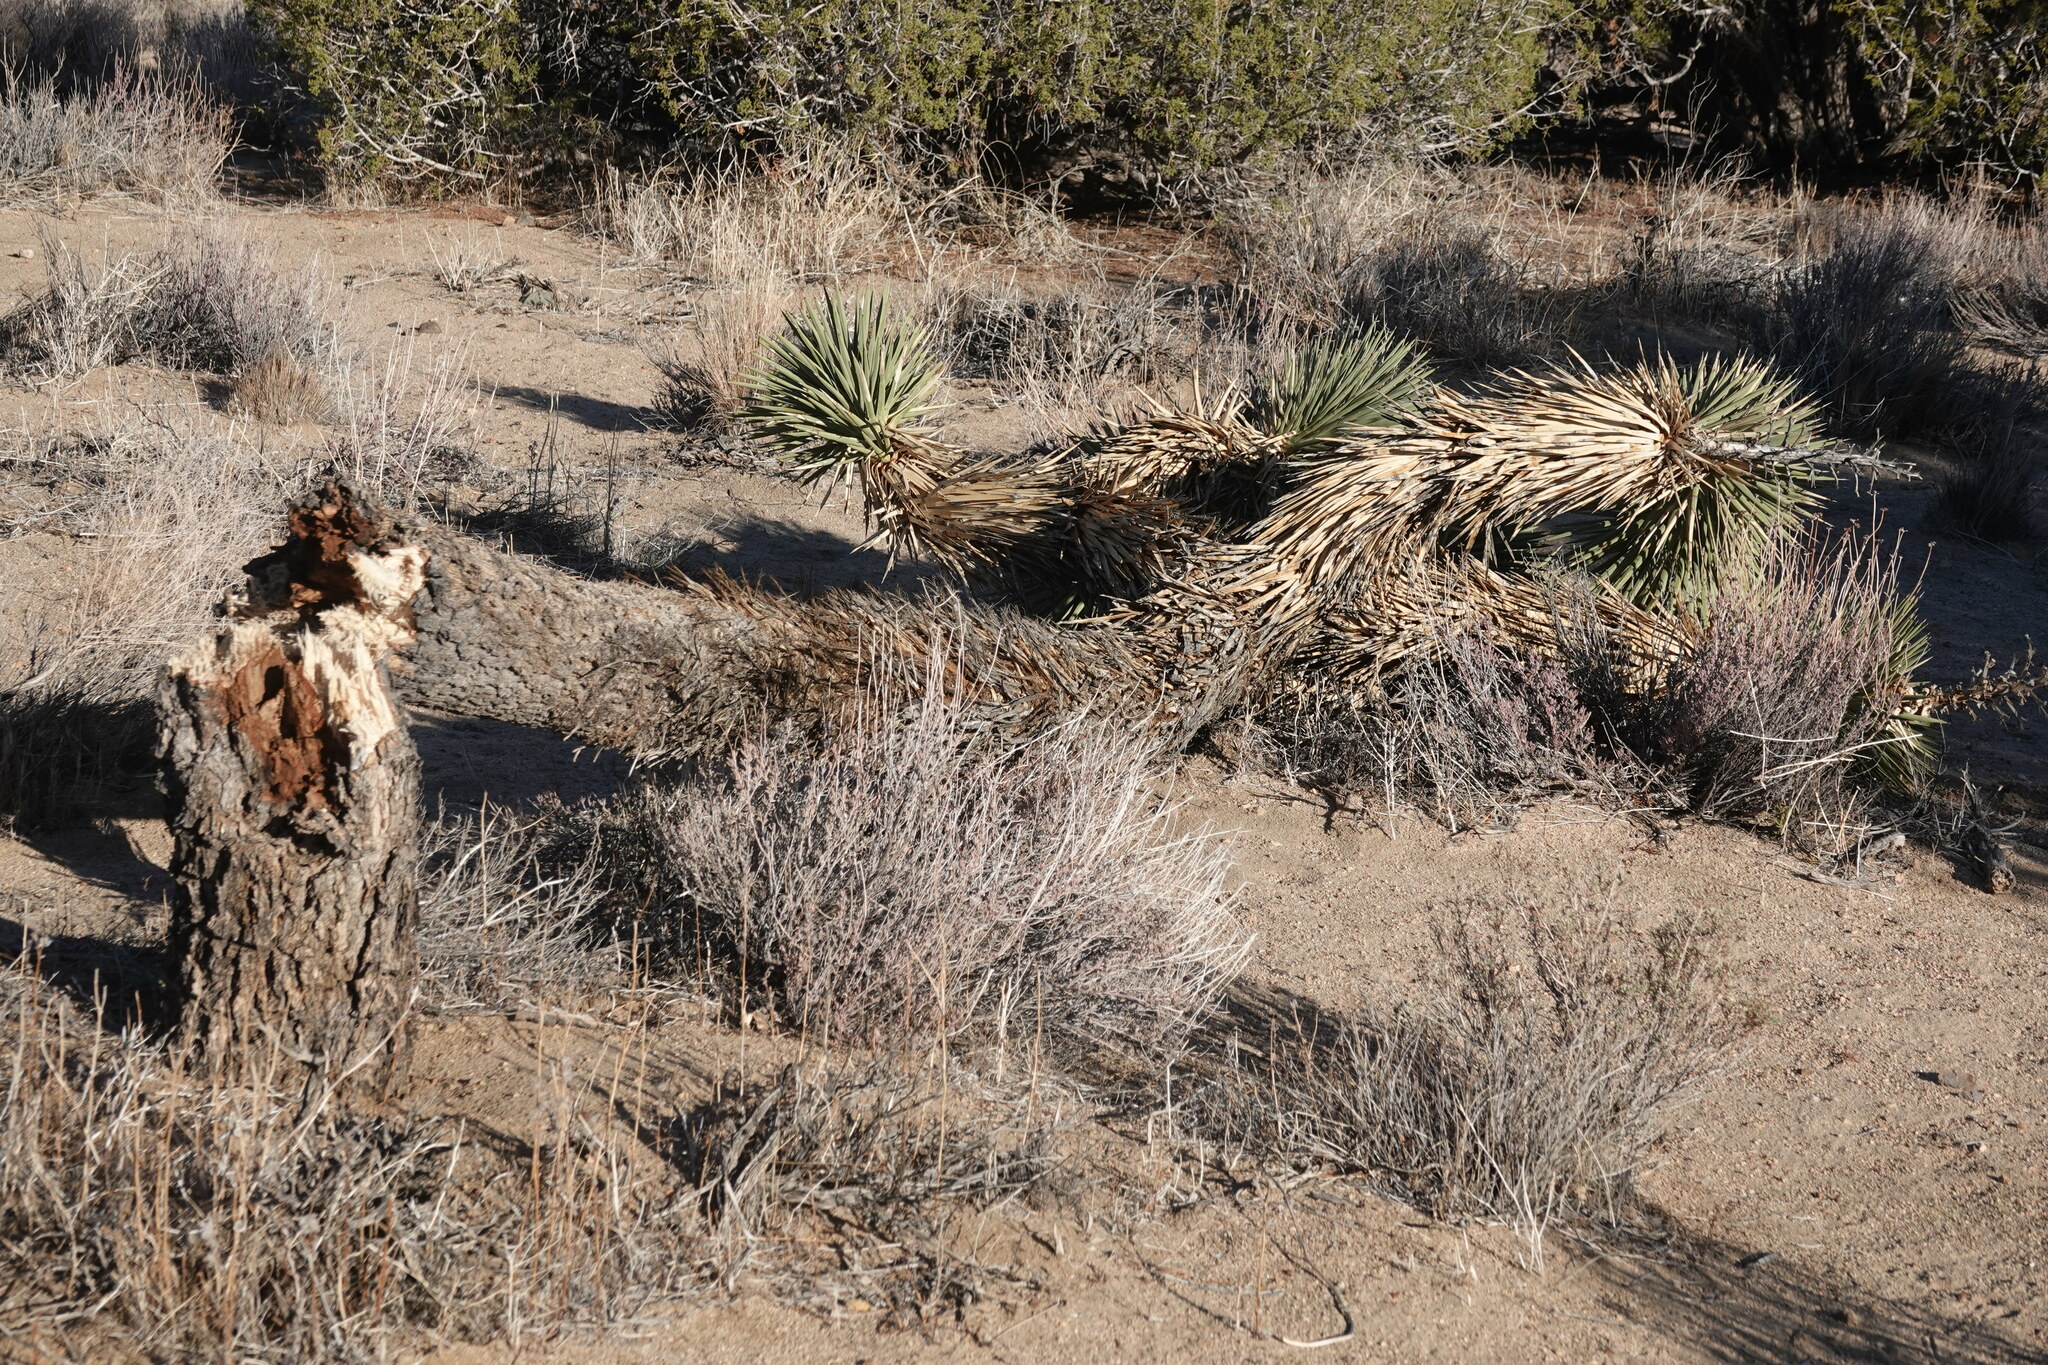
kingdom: Plantae
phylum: Tracheophyta
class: Liliopsida
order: Asparagales
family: Asparagaceae
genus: Yucca
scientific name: Yucca brevifolia
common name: Joshua tree
